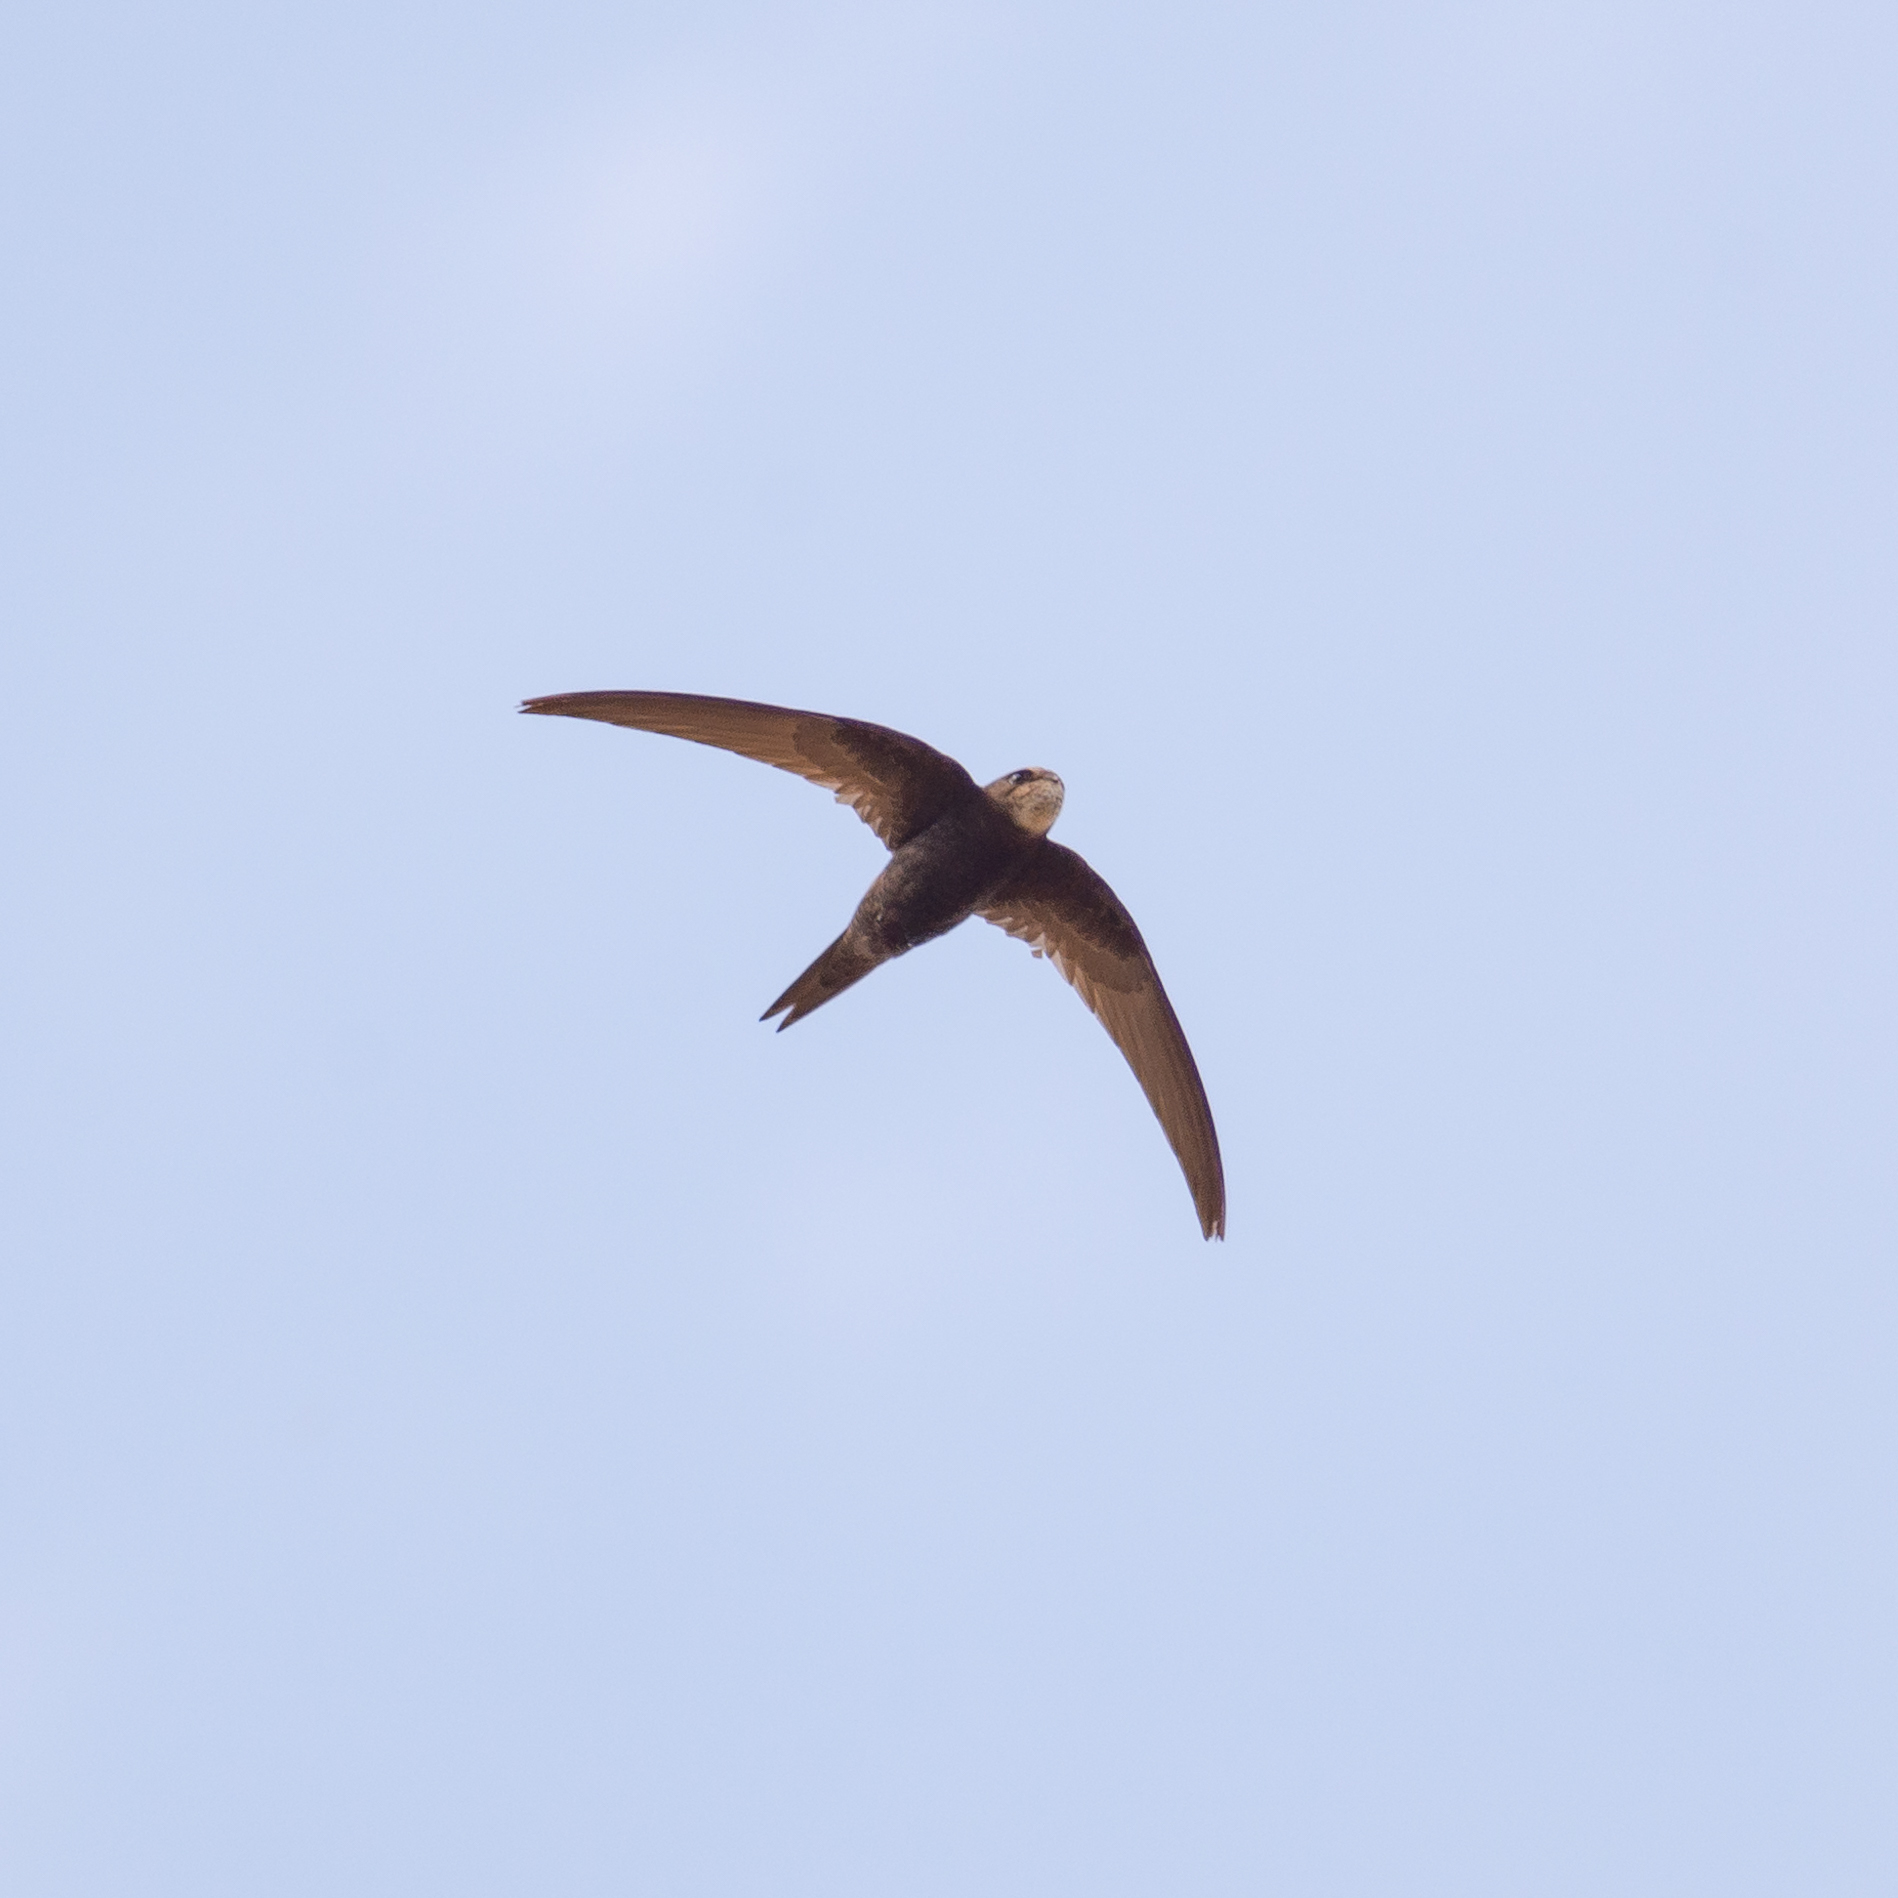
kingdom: Animalia
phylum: Chordata
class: Aves
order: Apodiformes
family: Apodidae
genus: Apus
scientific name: Apus apus
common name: Common swift
